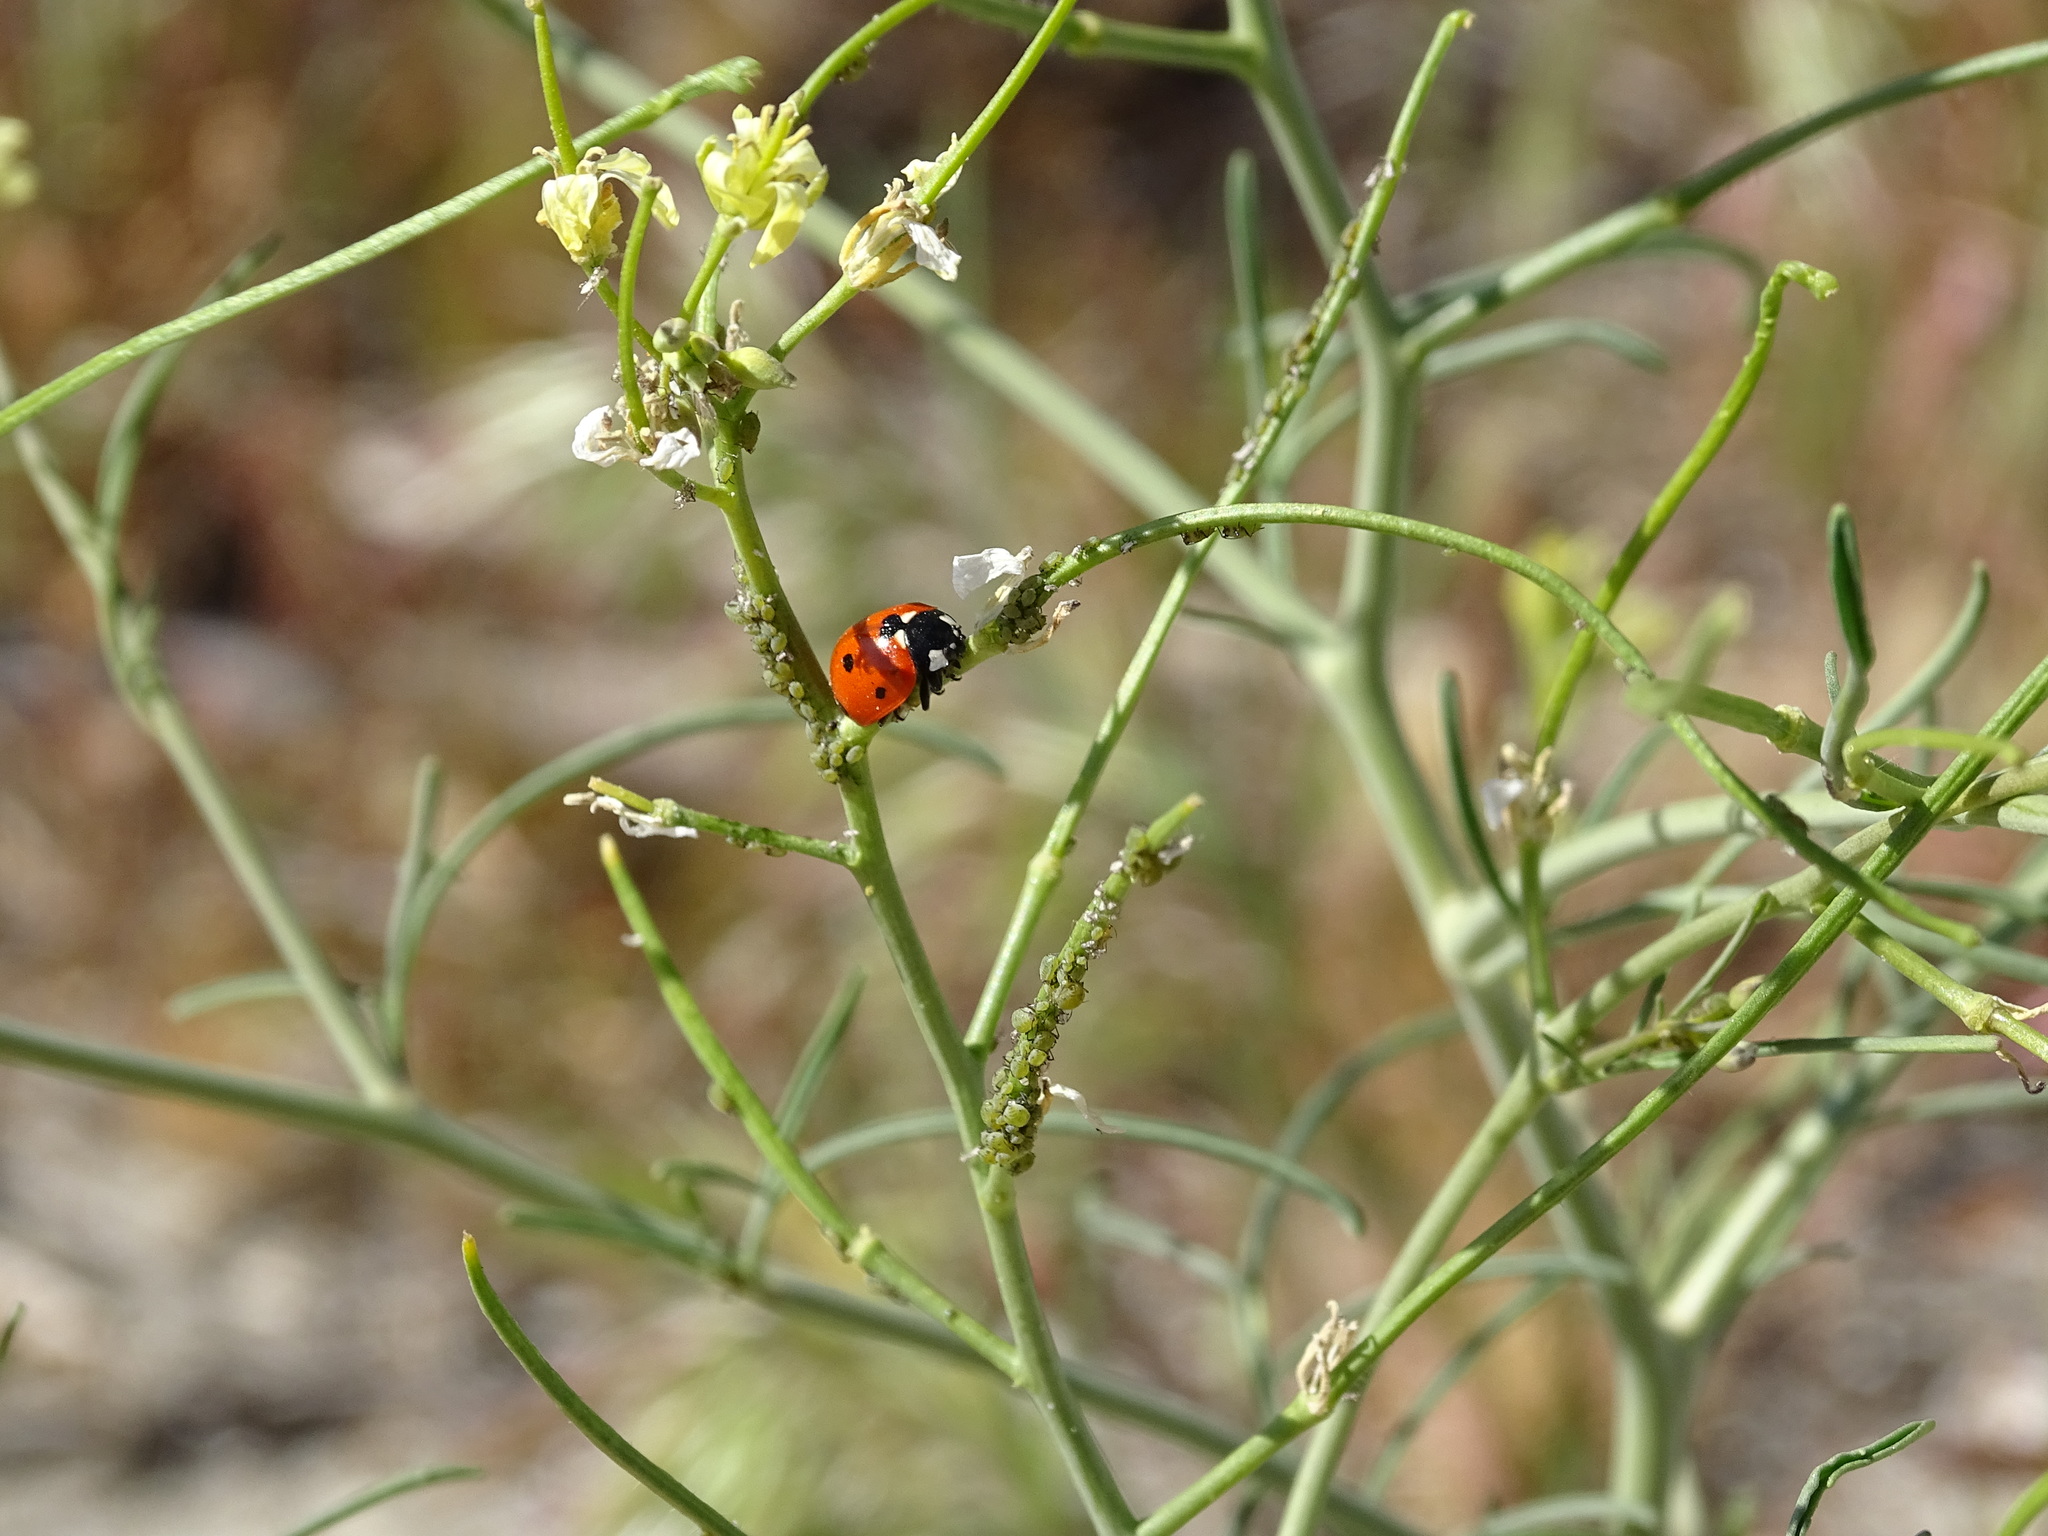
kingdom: Animalia
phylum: Arthropoda
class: Insecta
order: Coleoptera
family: Coccinellidae
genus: Coccinella
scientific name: Coccinella septempunctata
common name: Sevenspotted lady beetle
